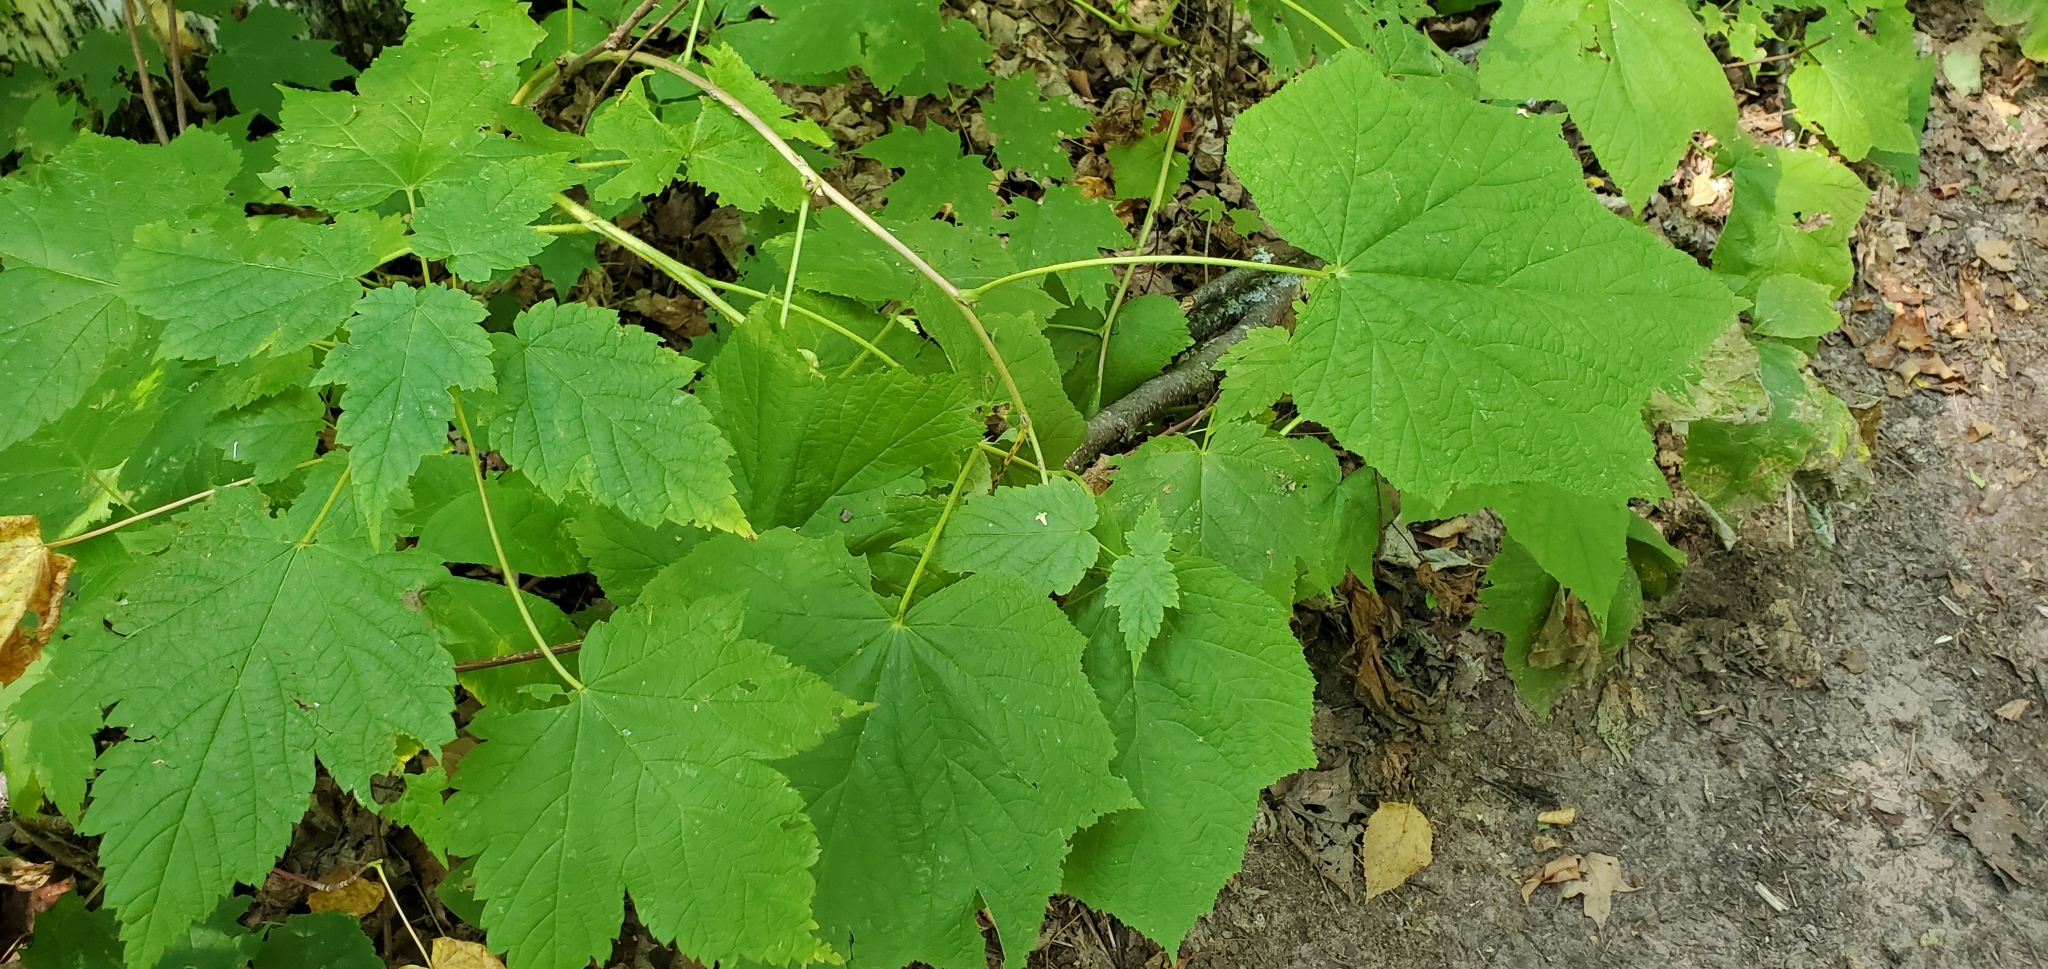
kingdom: Plantae
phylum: Tracheophyta
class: Magnoliopsida
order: Rosales
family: Rosaceae
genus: Rubus
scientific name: Rubus parviflorus
